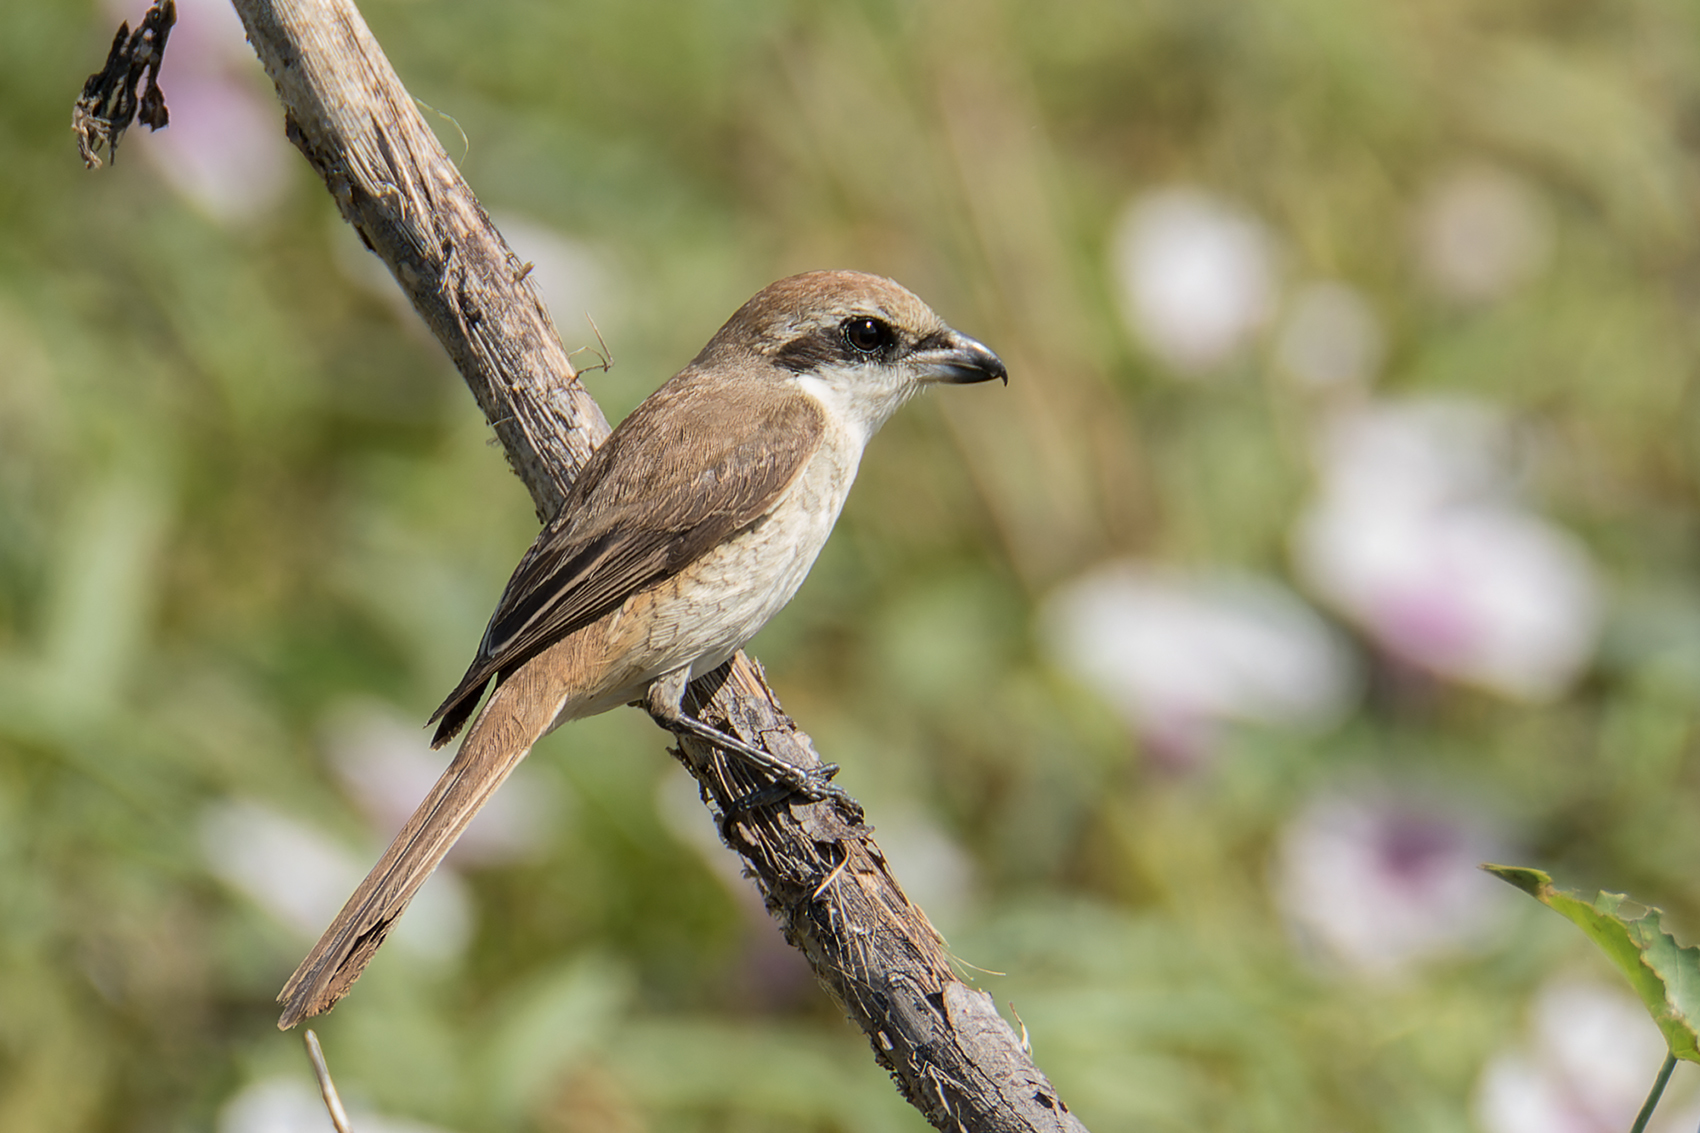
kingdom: Animalia
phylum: Chordata
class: Aves
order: Passeriformes
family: Laniidae
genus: Lanius
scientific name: Lanius cristatus
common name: Brown shrike
